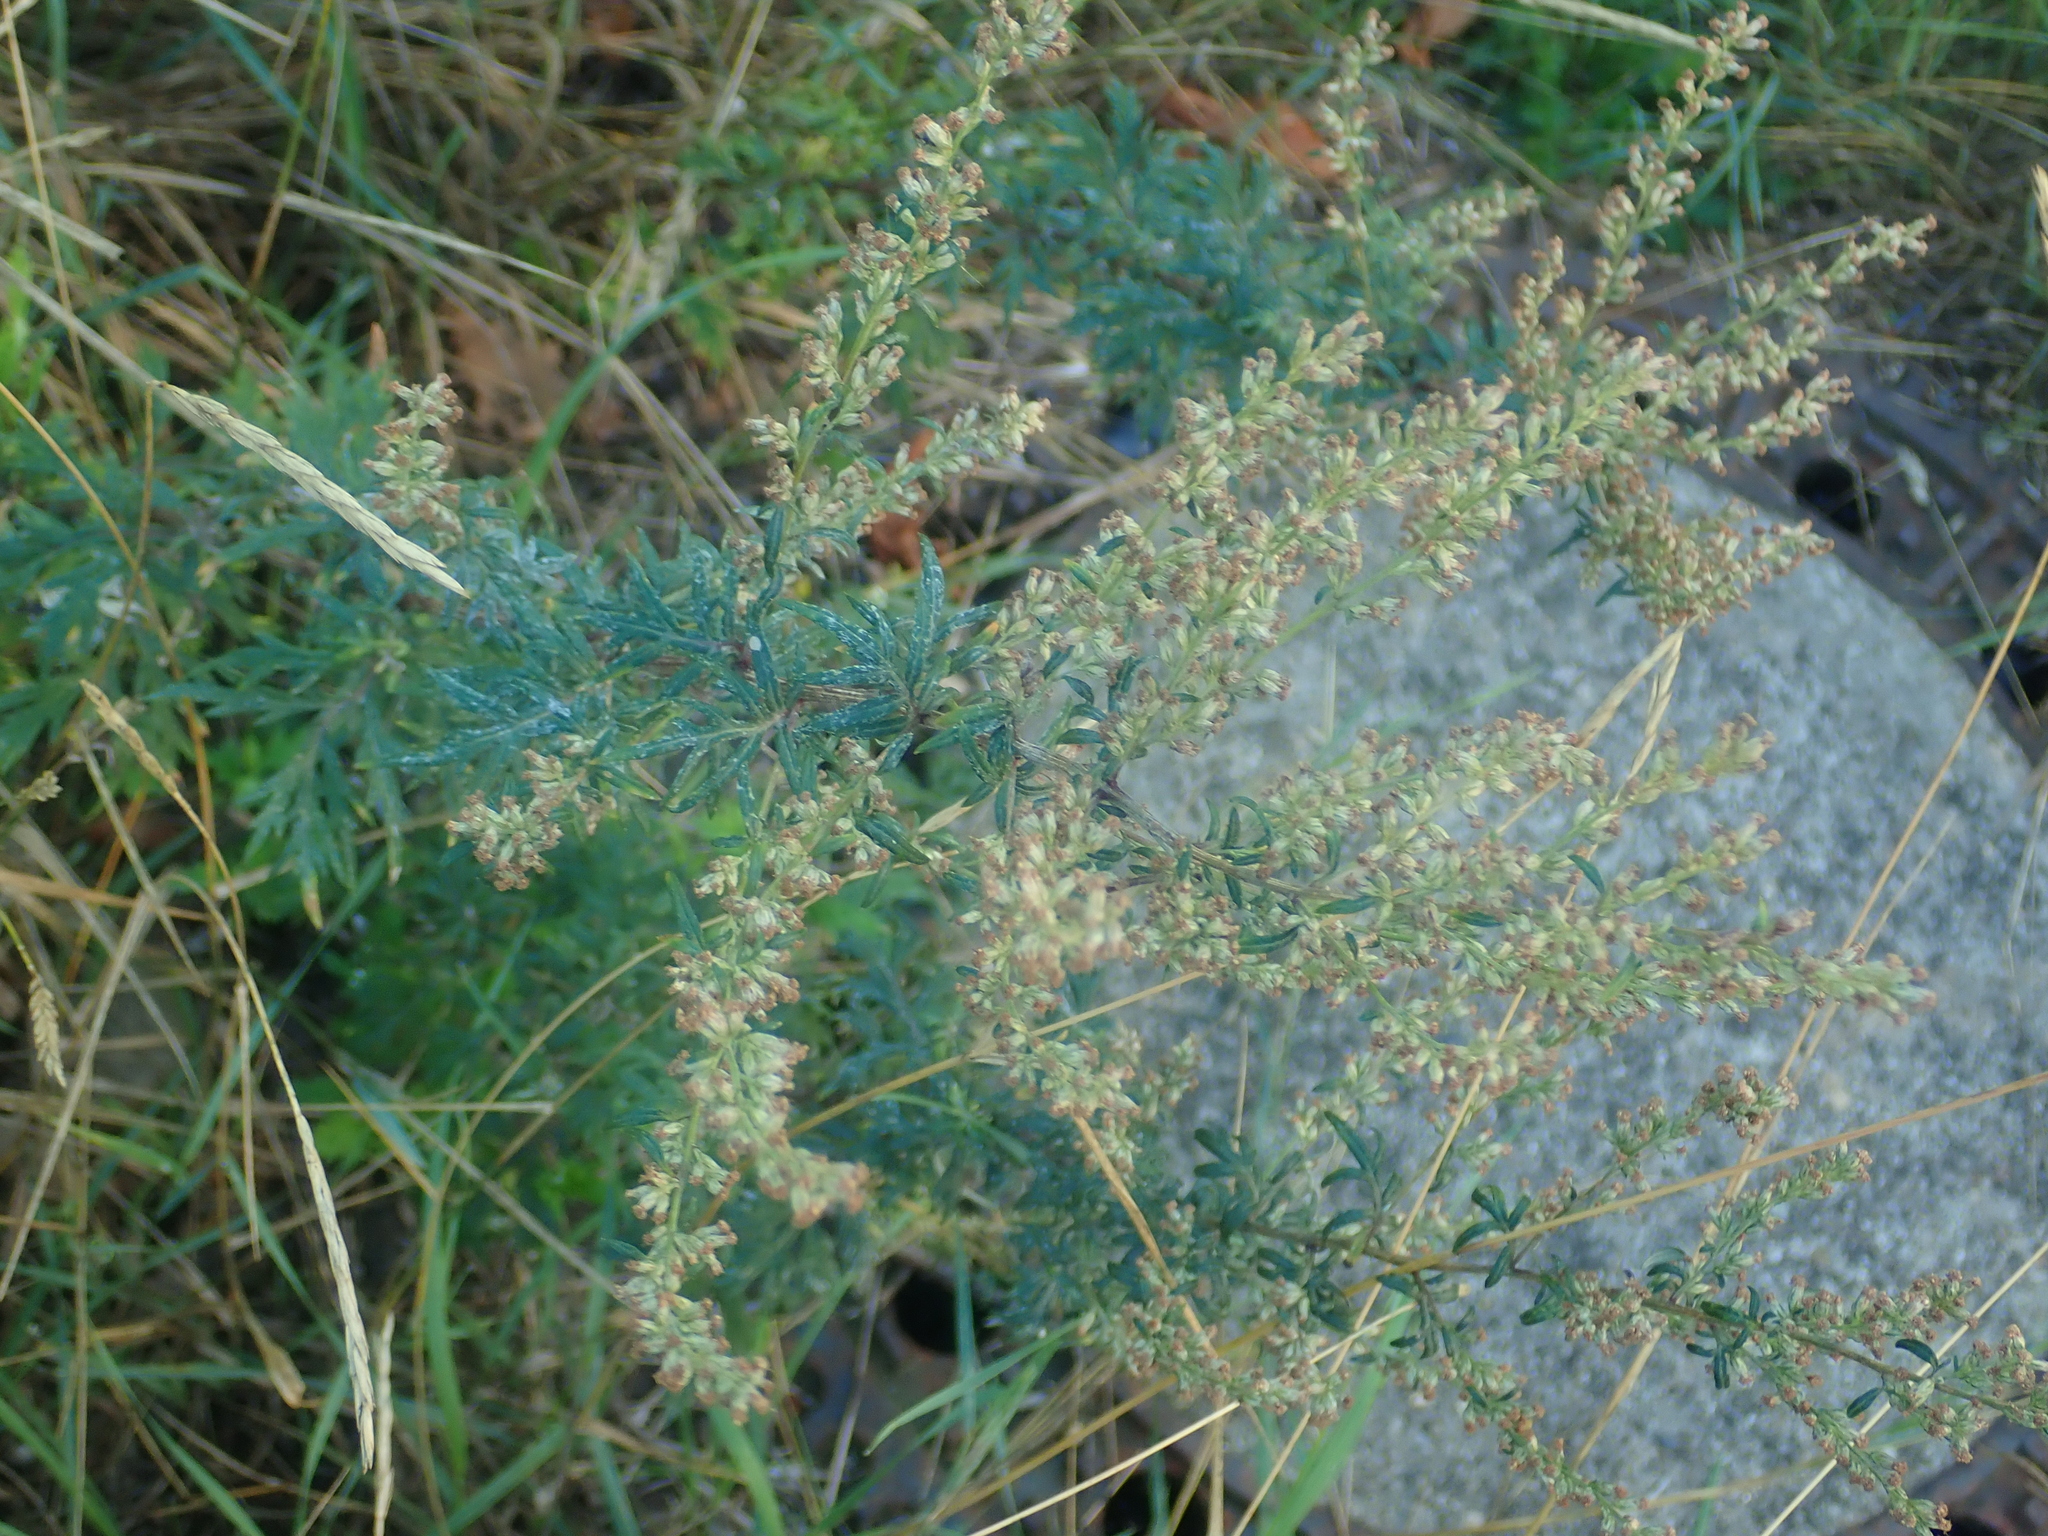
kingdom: Plantae
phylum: Tracheophyta
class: Magnoliopsida
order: Asterales
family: Asteraceae
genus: Artemisia
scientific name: Artemisia vulgaris
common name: Mugwort
